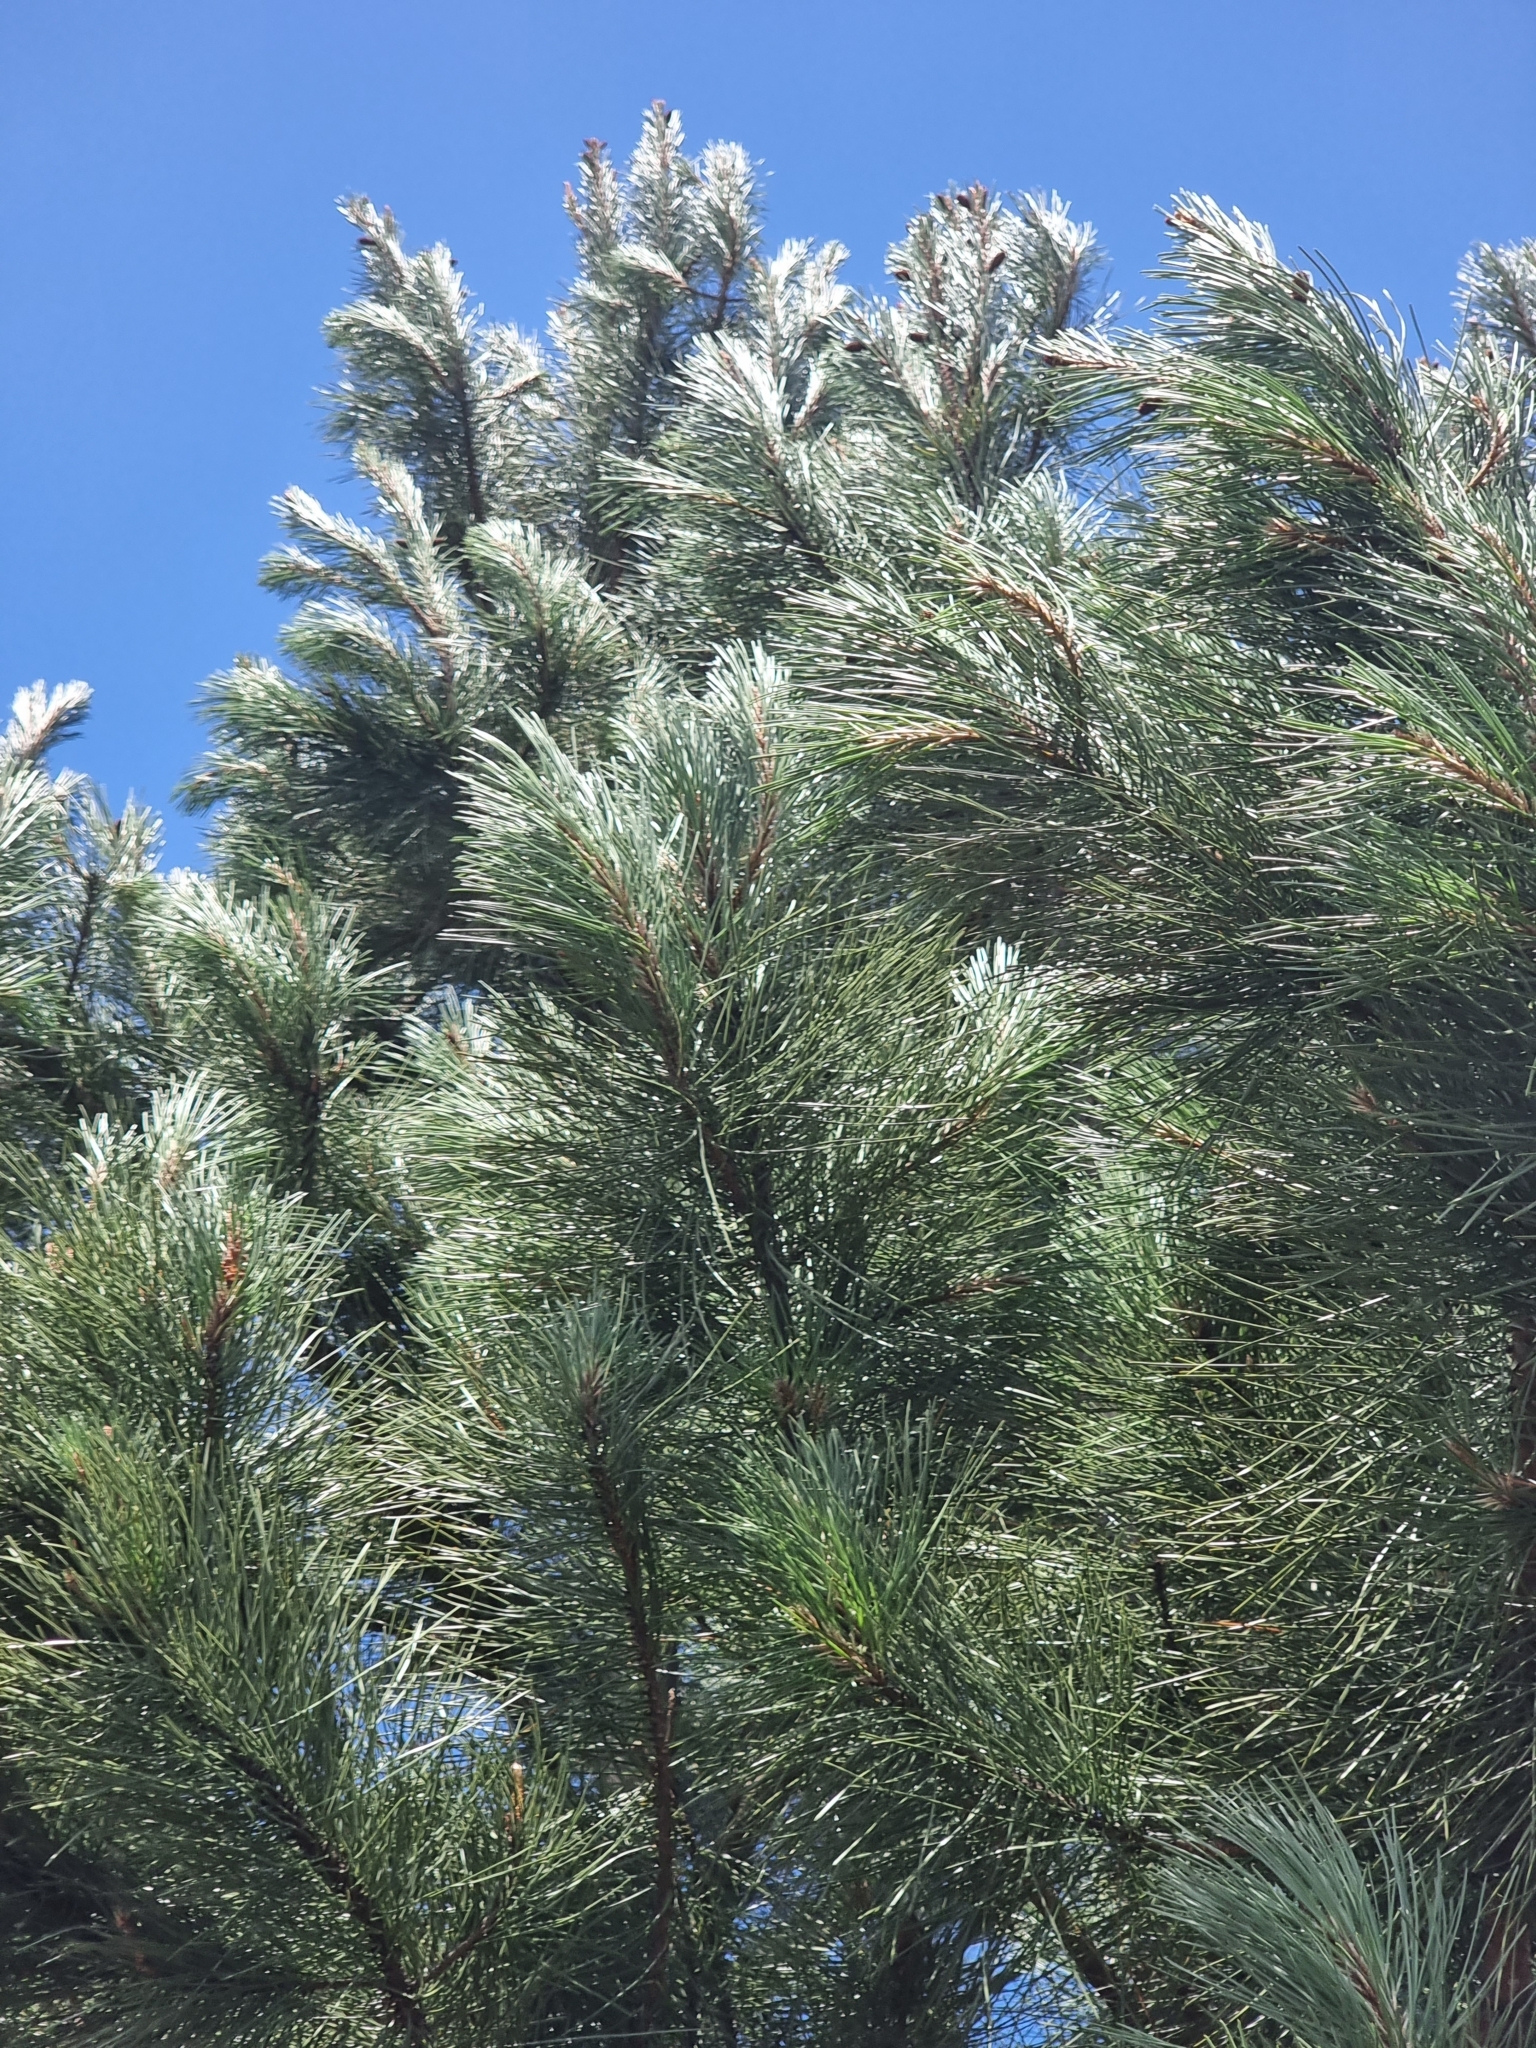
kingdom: Plantae
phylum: Tracheophyta
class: Pinopsida
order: Pinales
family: Pinaceae
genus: Pinus
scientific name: Pinus pinaster
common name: Maritime pine
